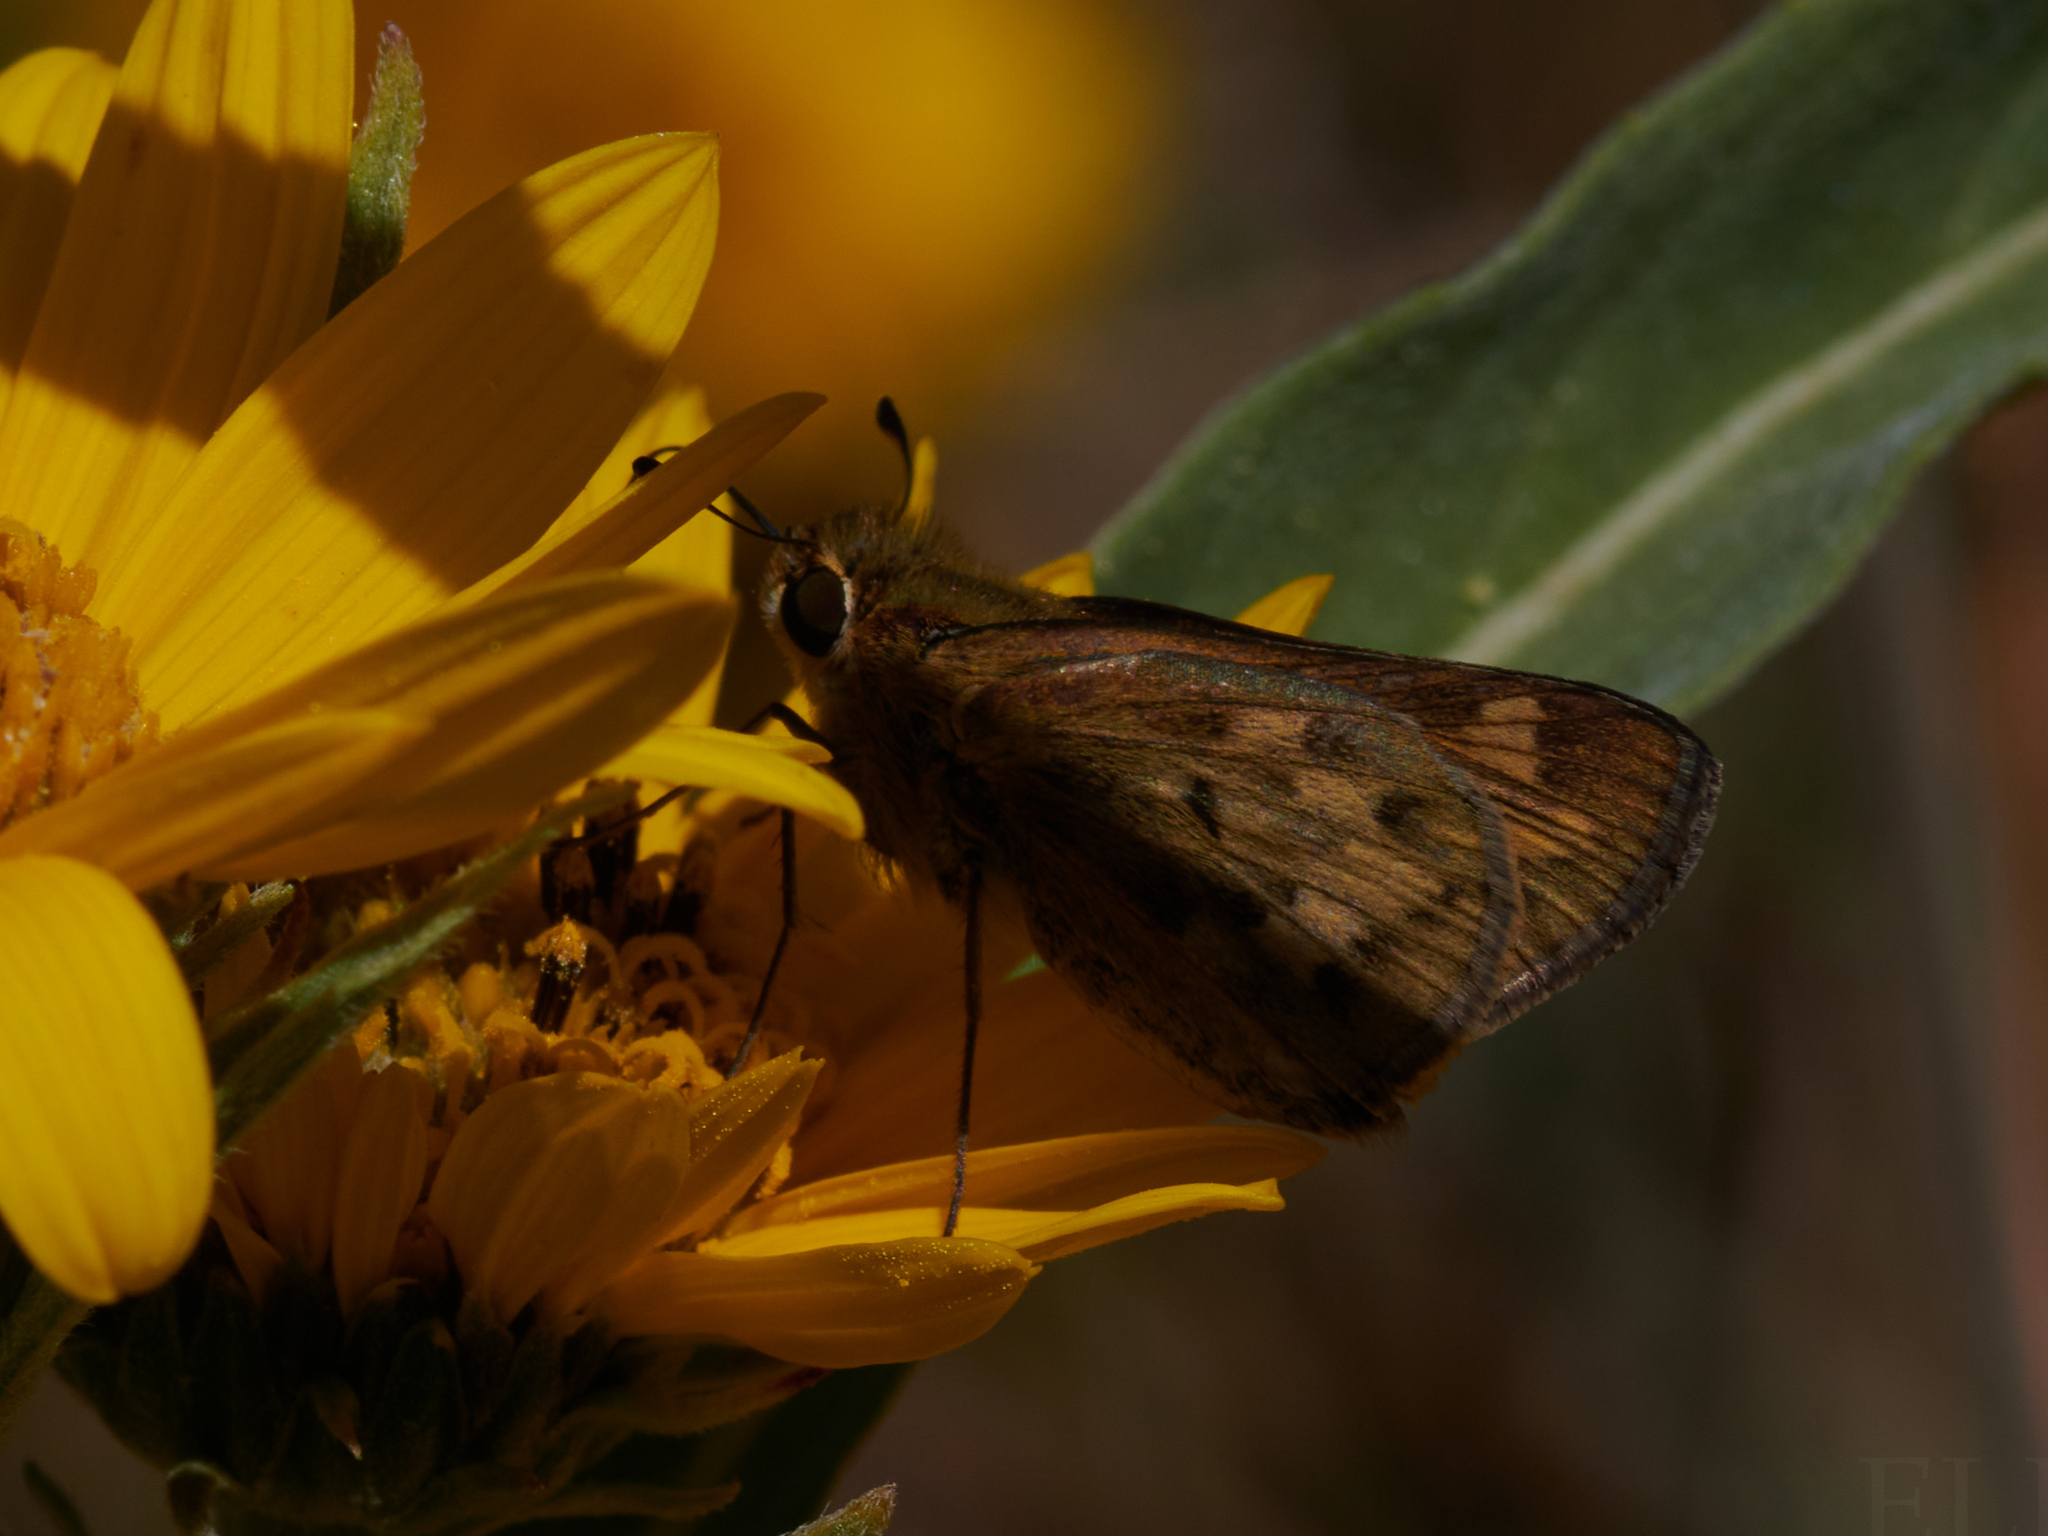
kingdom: Animalia
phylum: Arthropoda
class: Insecta
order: Lepidoptera
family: Hesperiidae
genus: Hylephila
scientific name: Hylephila phyleus
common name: Fiery skipper
